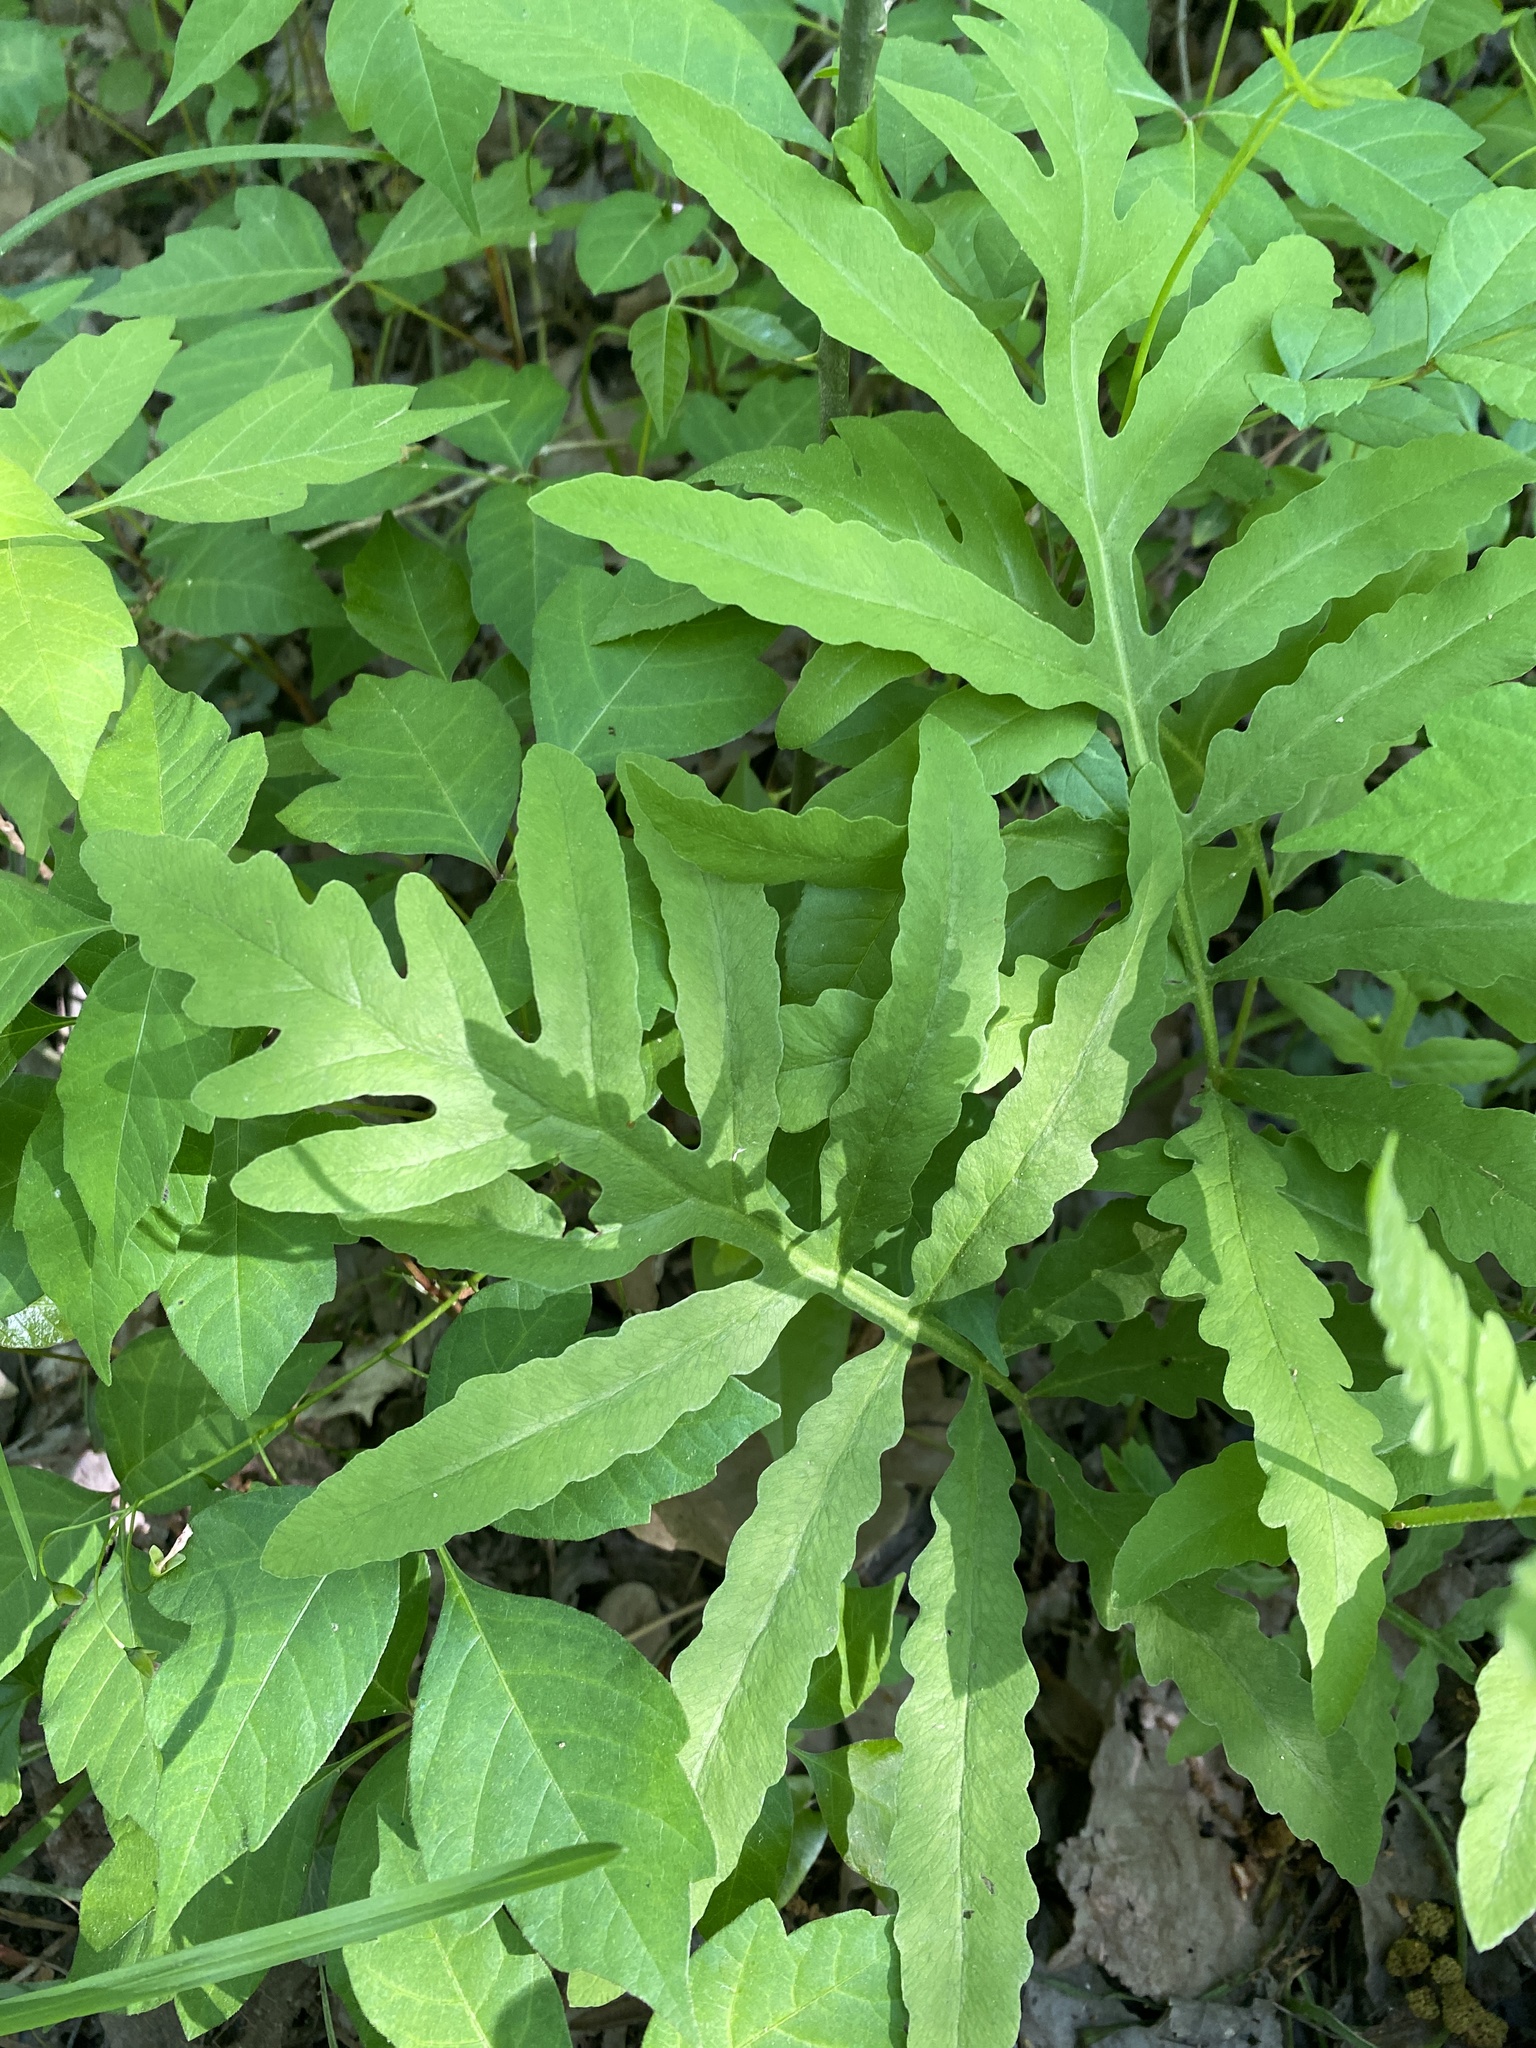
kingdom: Plantae
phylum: Tracheophyta
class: Polypodiopsida
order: Polypodiales
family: Onocleaceae
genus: Onoclea
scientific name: Onoclea sensibilis
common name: Sensitive fern
